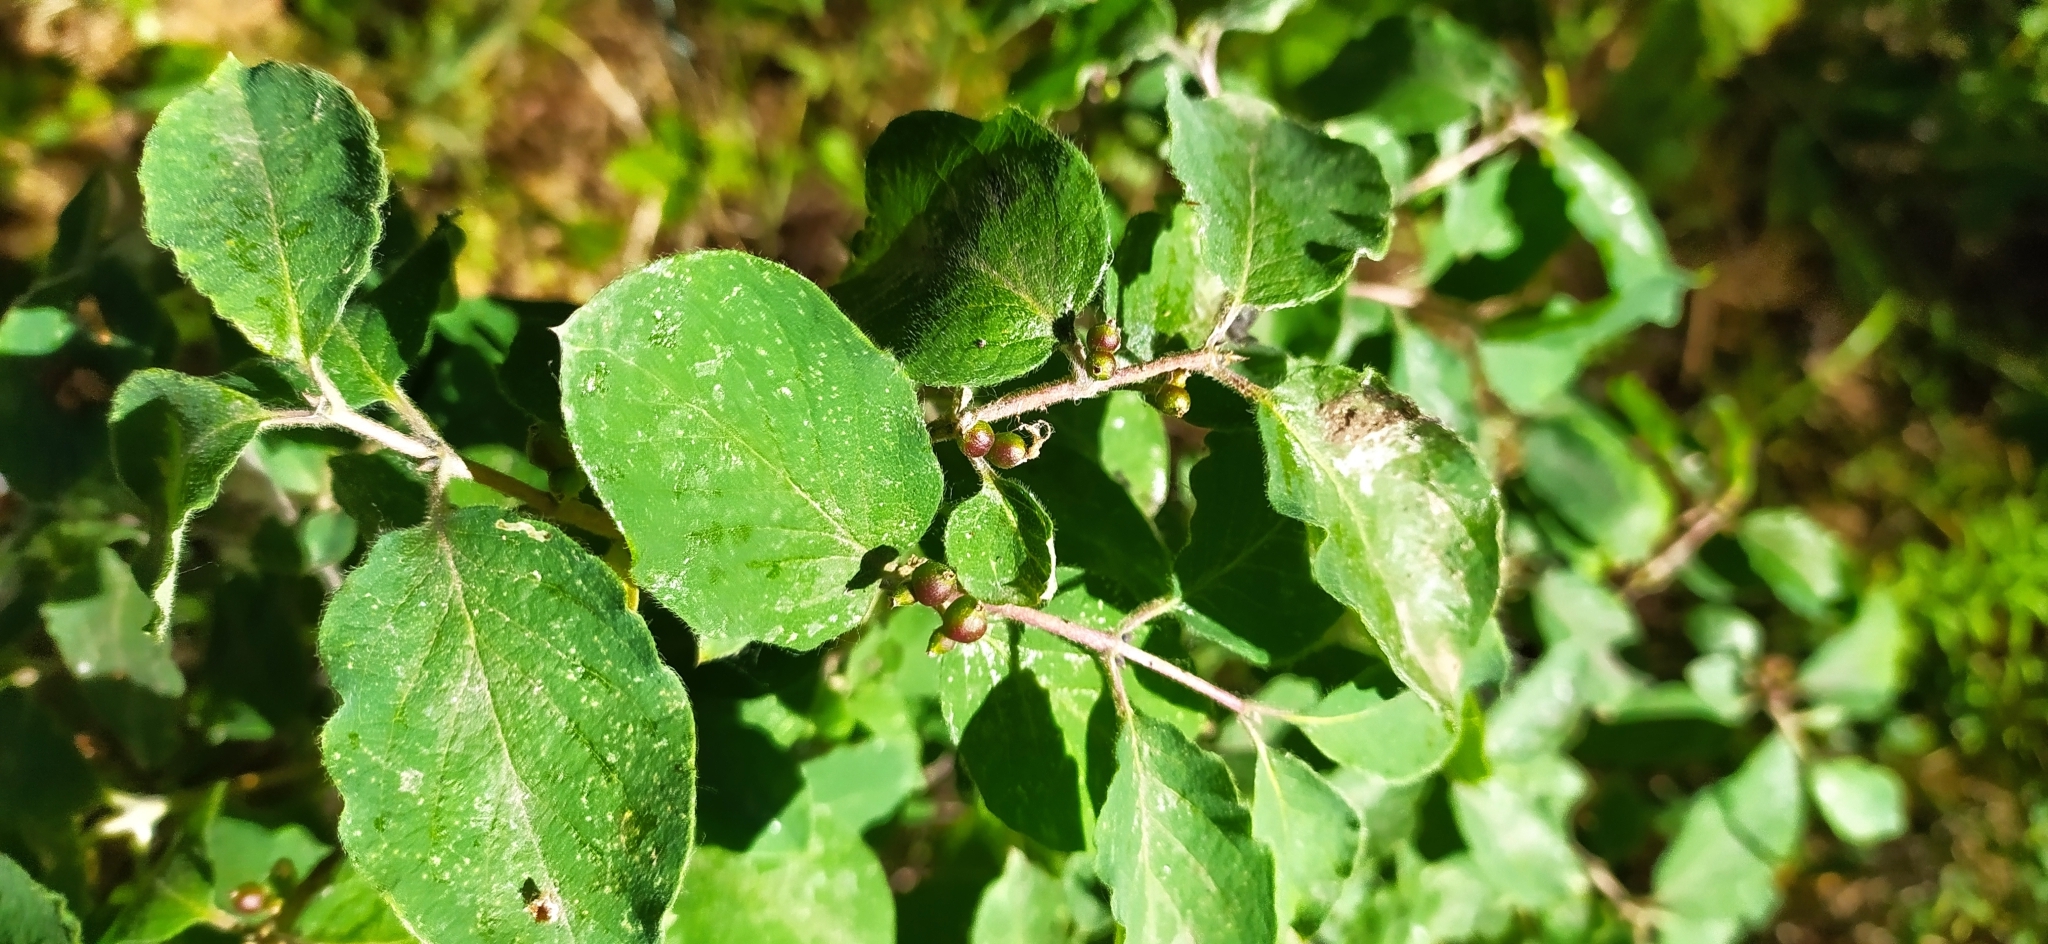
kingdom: Plantae
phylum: Tracheophyta
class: Magnoliopsida
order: Dipsacales
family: Caprifoliaceae
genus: Lonicera
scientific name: Lonicera xylosteum
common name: Fly honeysuckle
